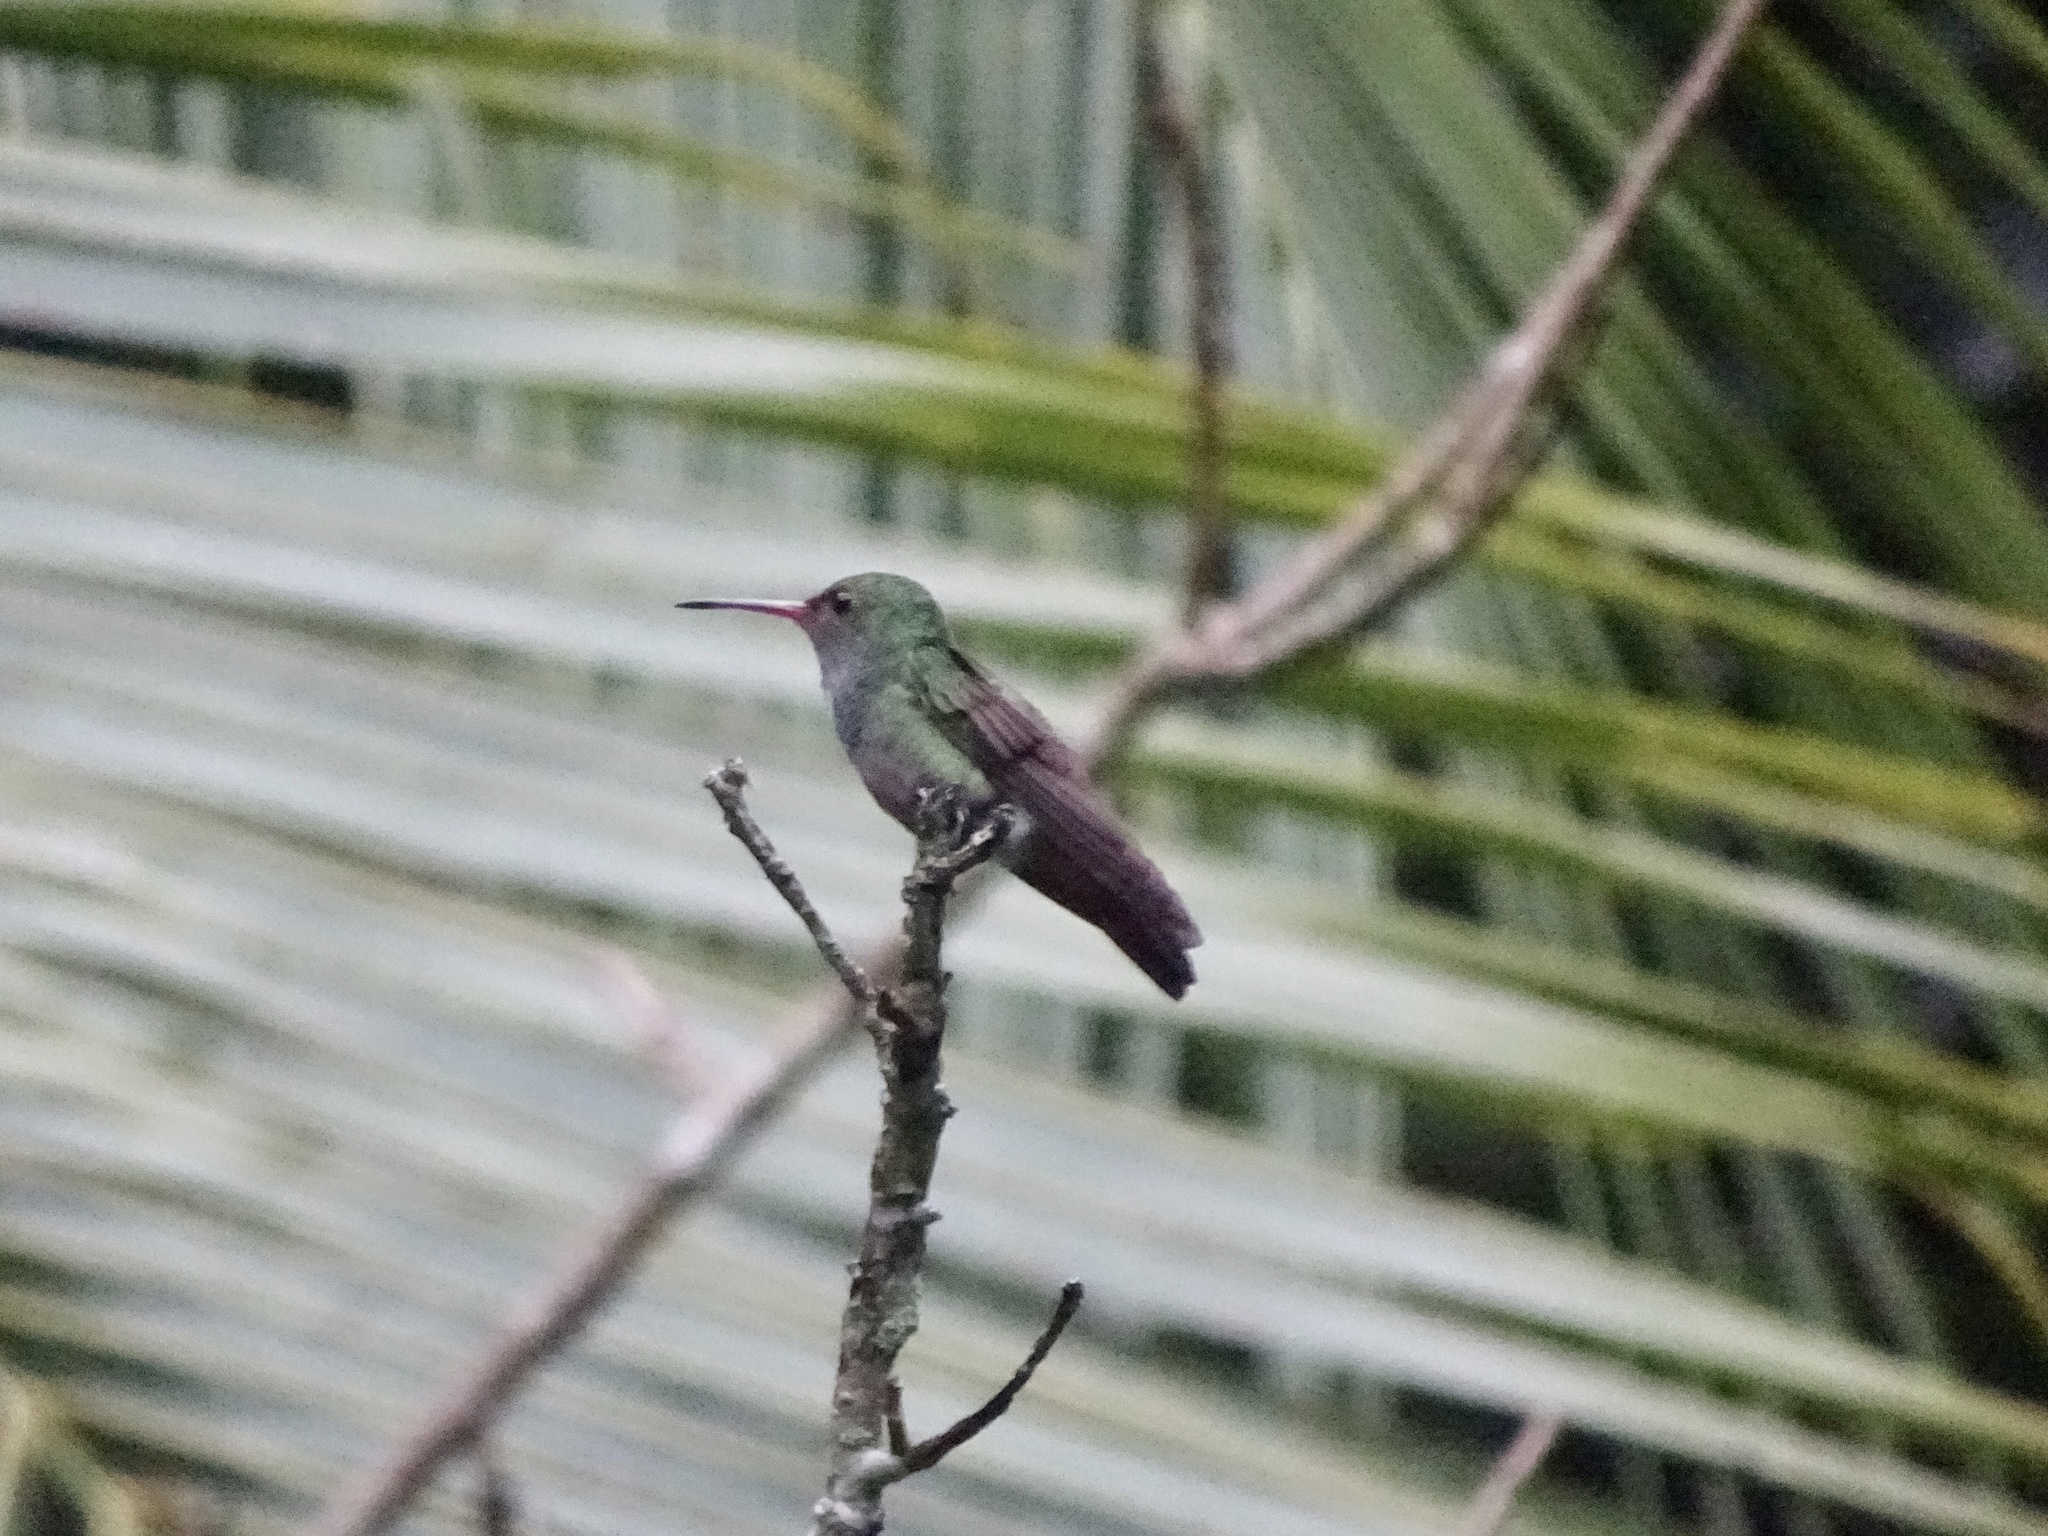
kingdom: Animalia
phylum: Chordata
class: Aves
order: Apodiformes
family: Trochilidae
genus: Amazilia
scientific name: Amazilia tzacatl
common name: Rufous-tailed hummingbird
